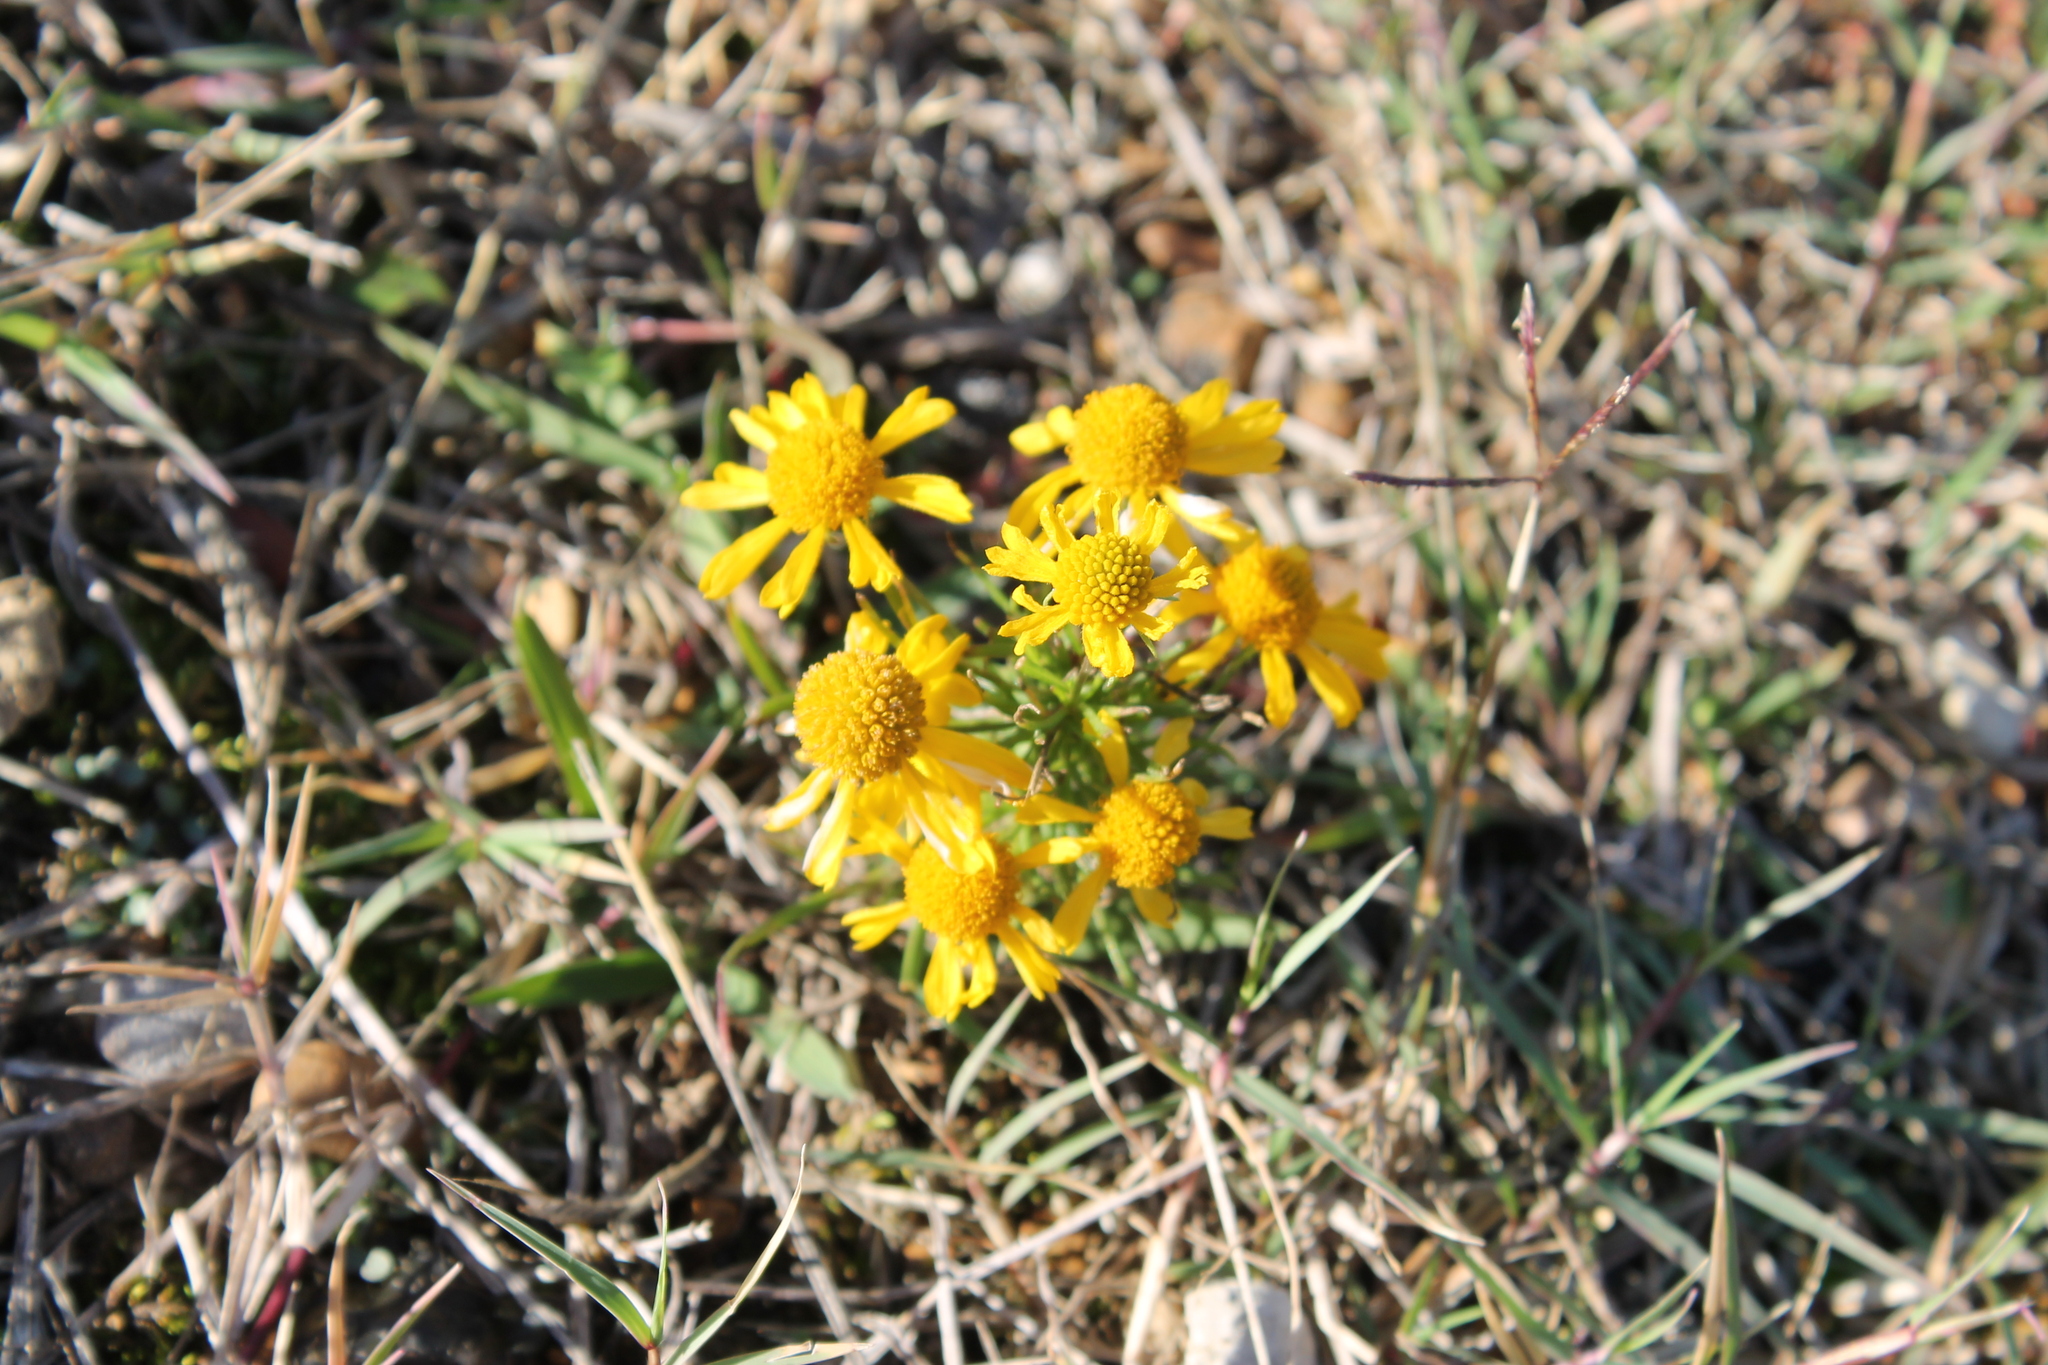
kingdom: Plantae
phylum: Tracheophyta
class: Magnoliopsida
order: Asterales
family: Asteraceae
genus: Helenium
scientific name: Helenium amarum
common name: Bitter sneezeweed
